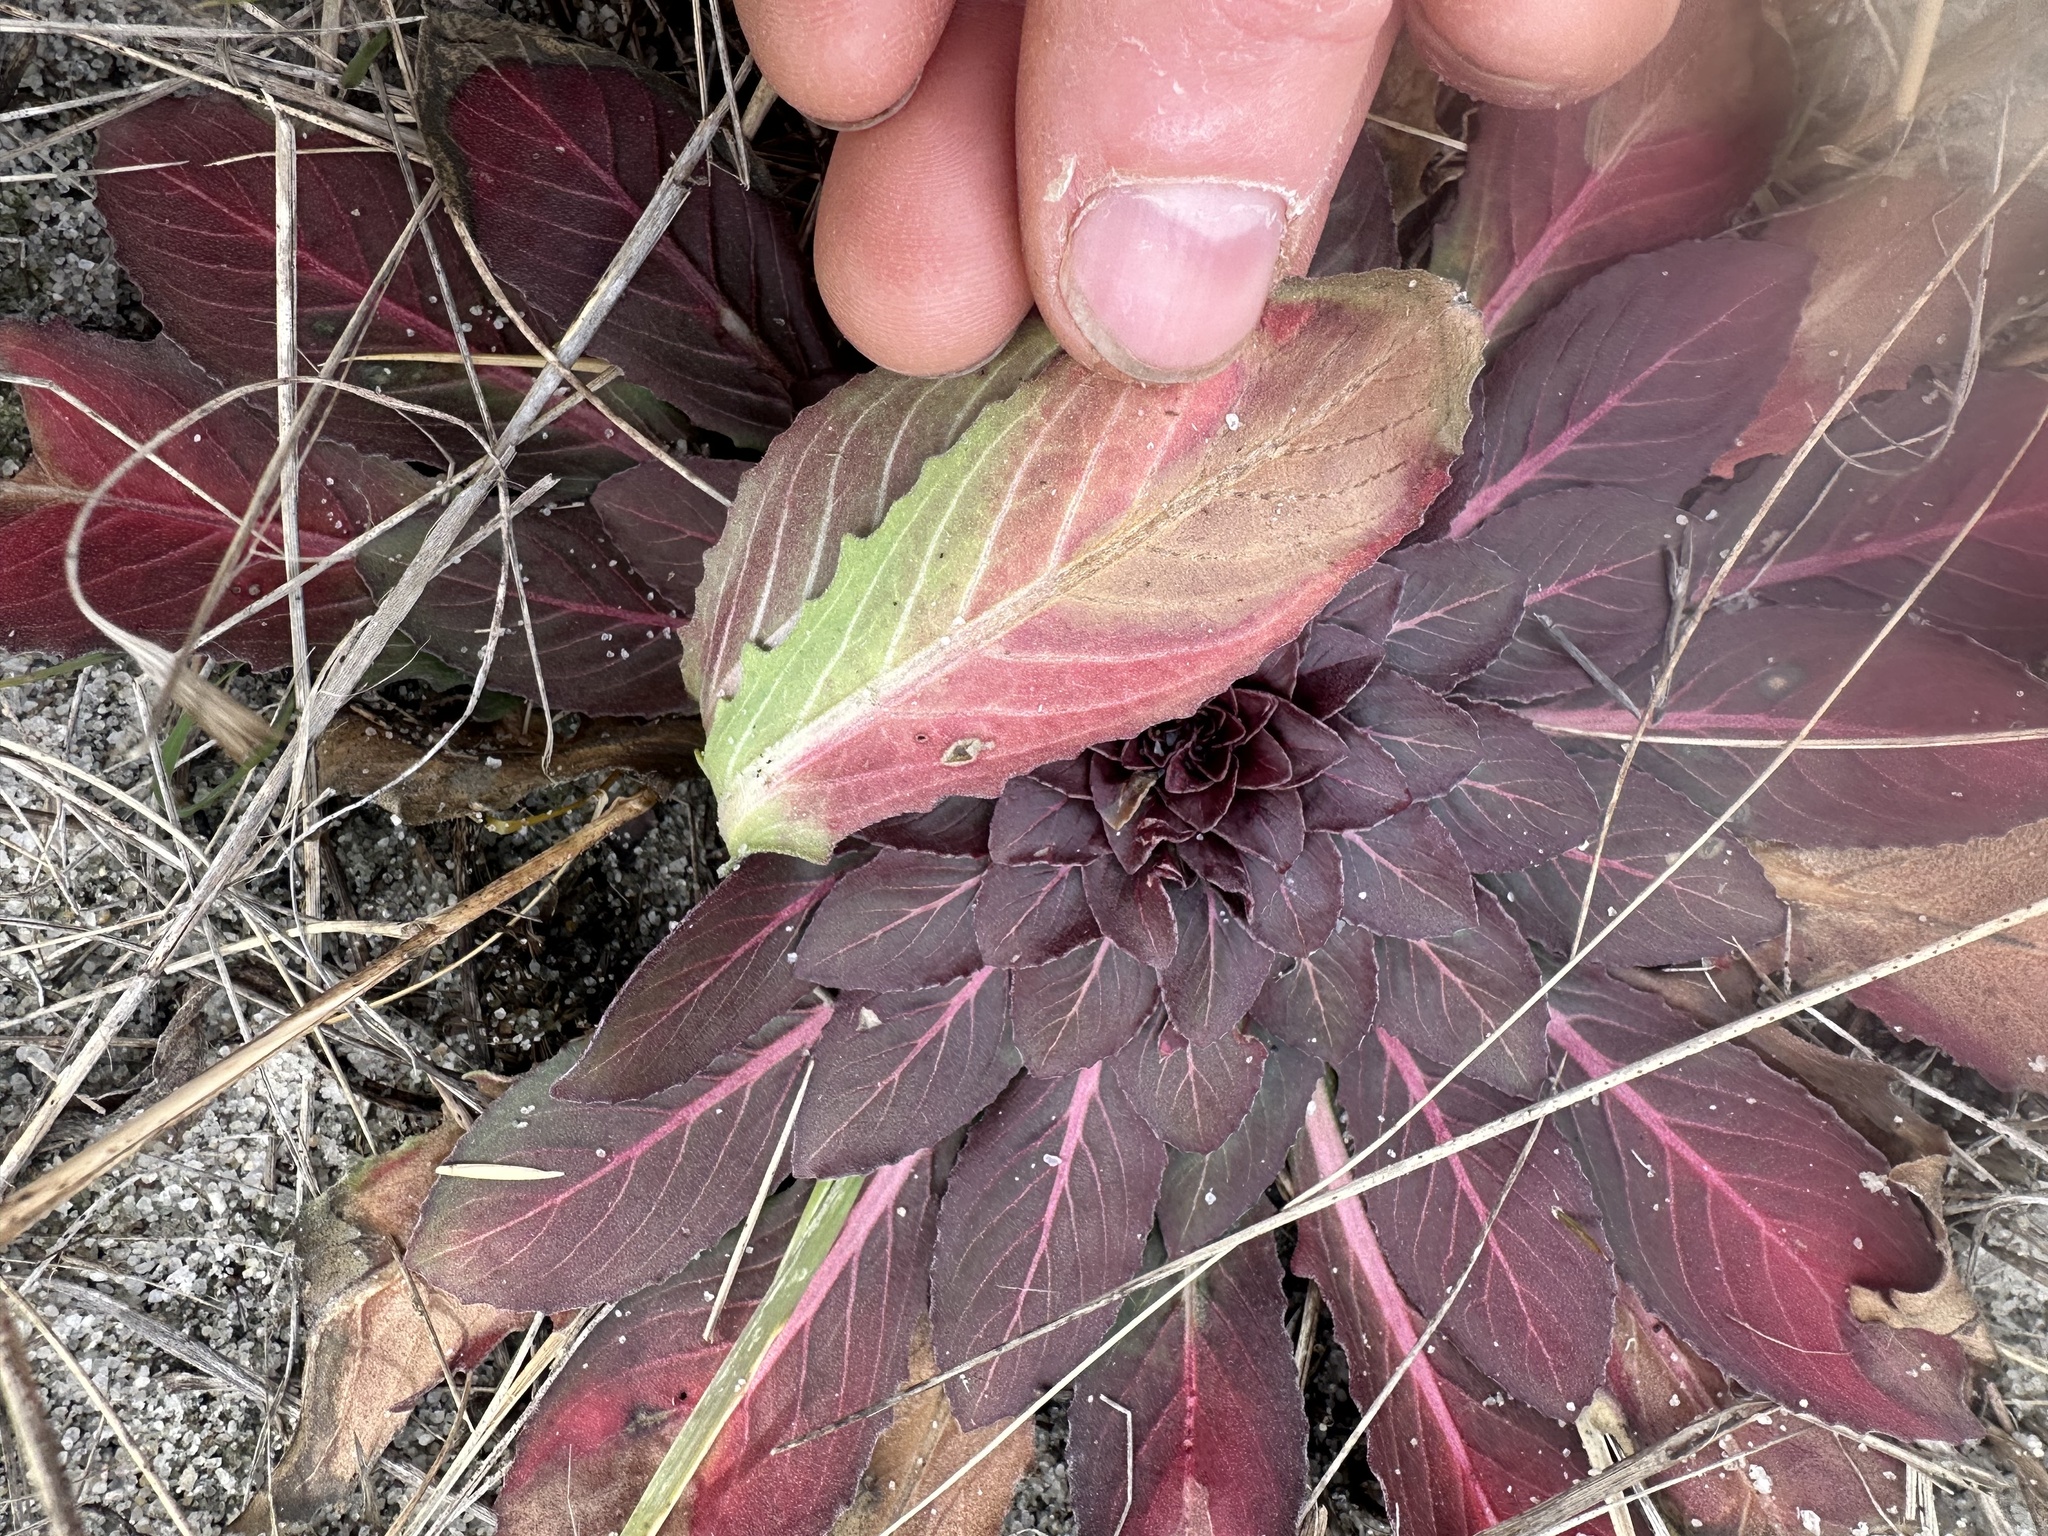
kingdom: Plantae
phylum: Tracheophyta
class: Magnoliopsida
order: Myrtales
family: Onagraceae
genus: Oenothera
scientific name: Oenothera biennis
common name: Common evening-primrose
